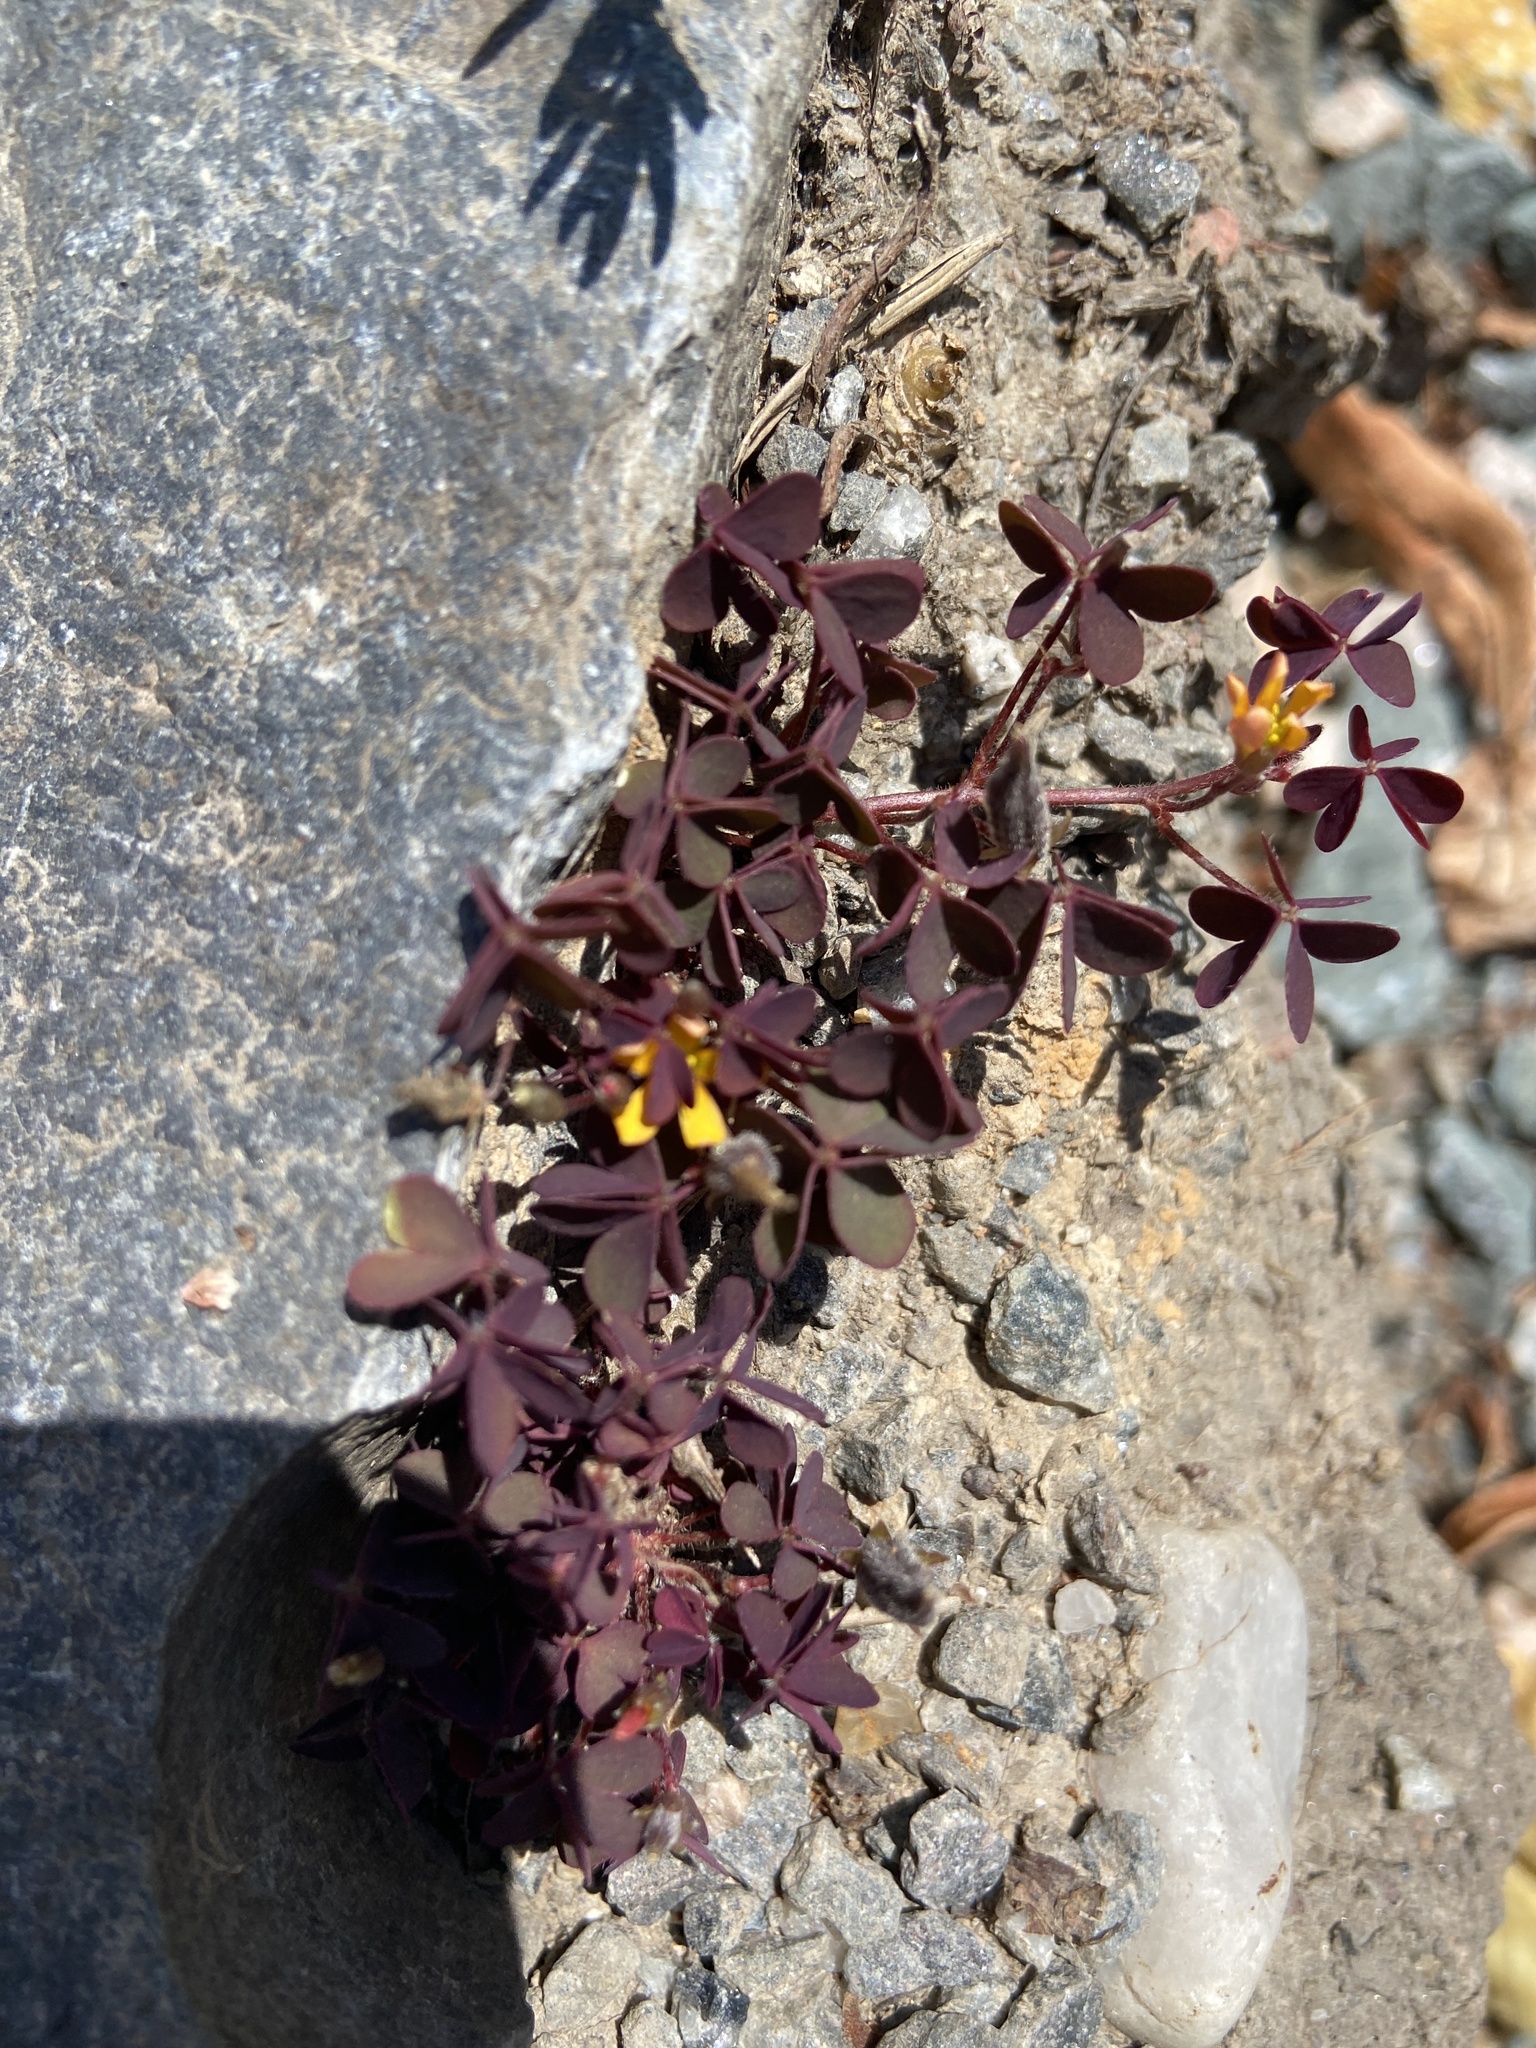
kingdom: Plantae
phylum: Tracheophyta
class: Magnoliopsida
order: Oxalidales
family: Oxalidaceae
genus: Oxalis
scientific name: Oxalis corniculata
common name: Procumbent yellow-sorrel
